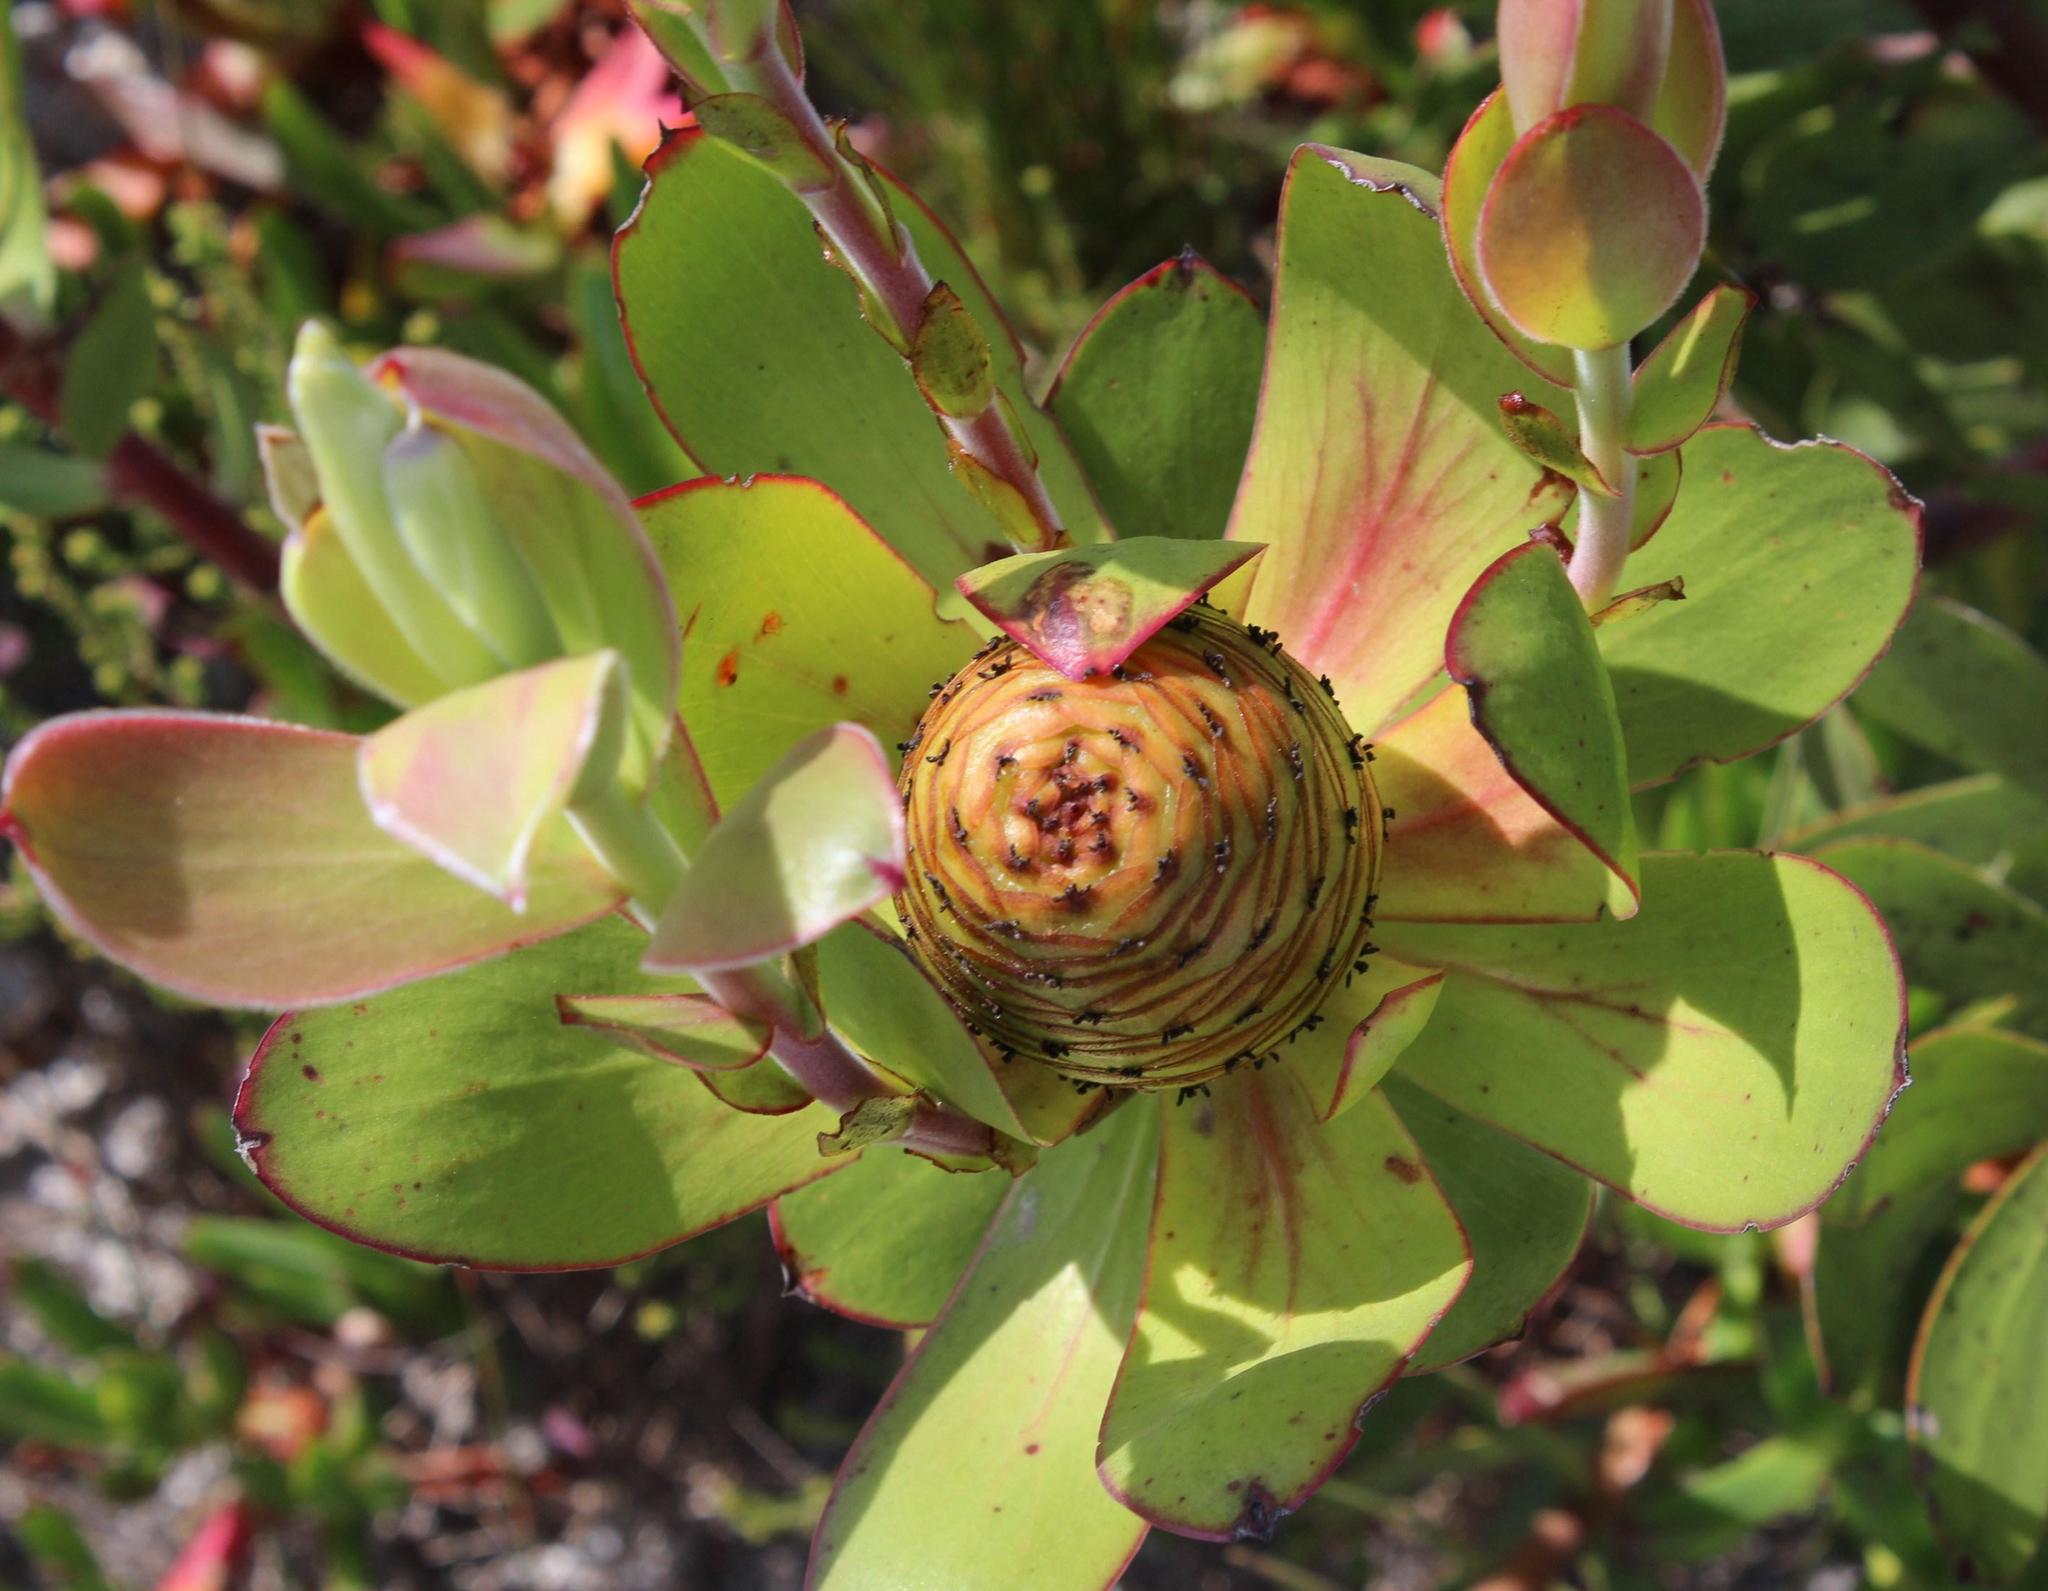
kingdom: Plantae
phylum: Tracheophyta
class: Magnoliopsida
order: Proteales
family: Proteaceae
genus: Leucadendron
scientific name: Leucadendron gandogeri
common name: Broad-leaf conebush
